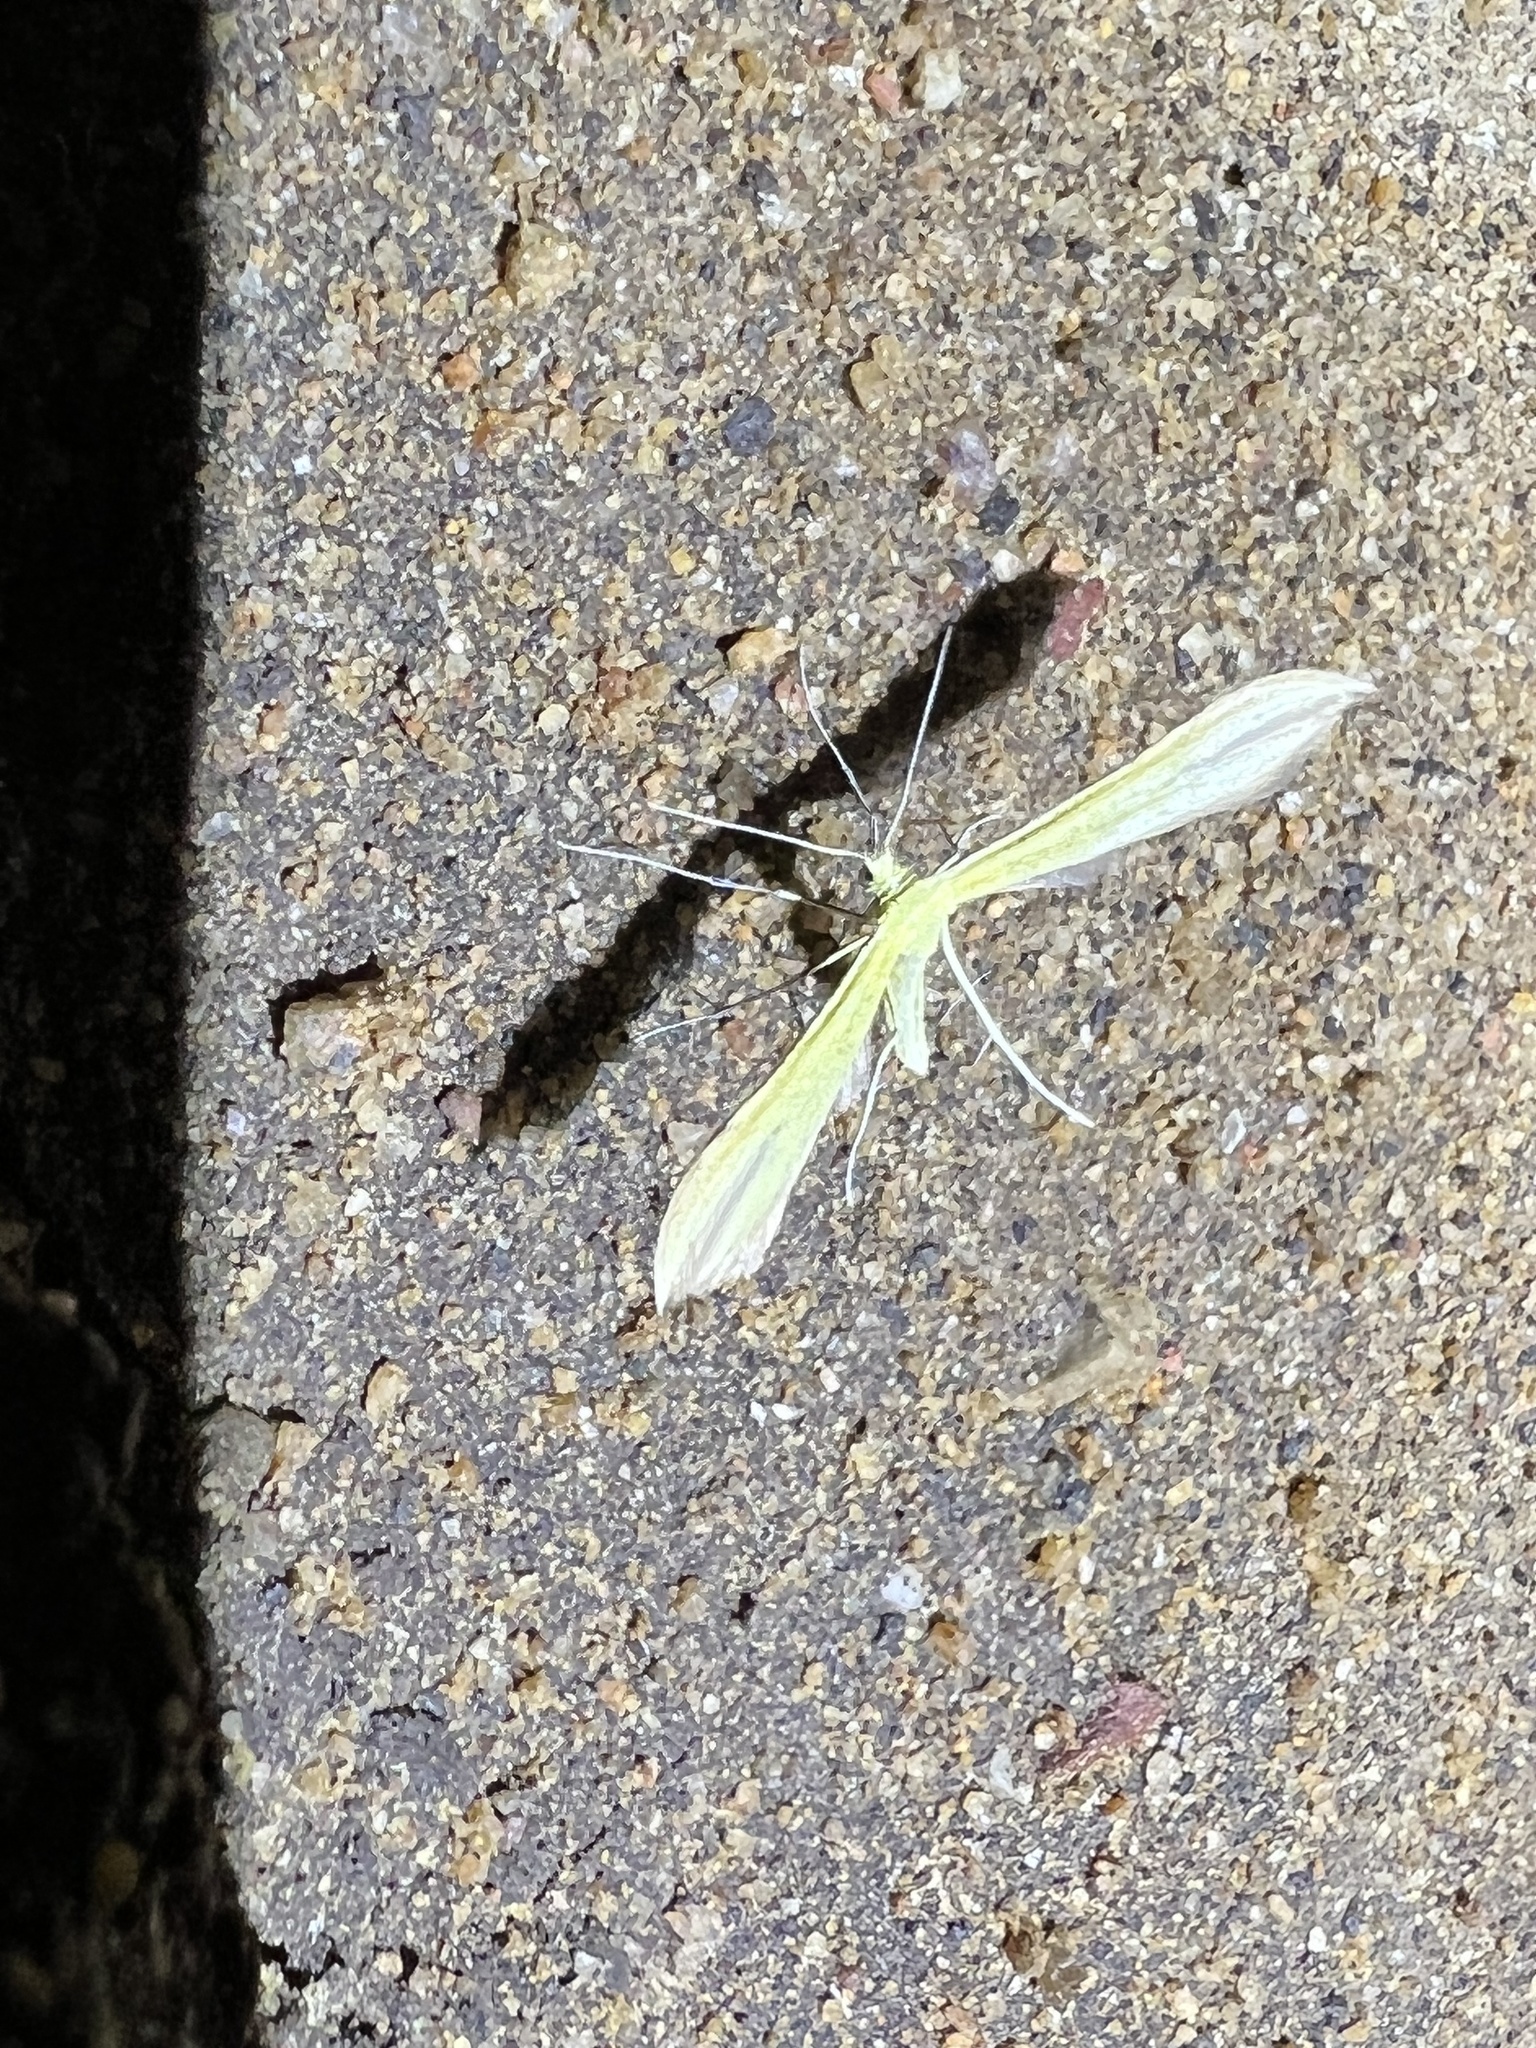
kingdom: Animalia
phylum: Arthropoda
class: Insecta
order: Lepidoptera
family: Pterophoridae
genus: Hellinsia
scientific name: Hellinsia sulphureodactylus
